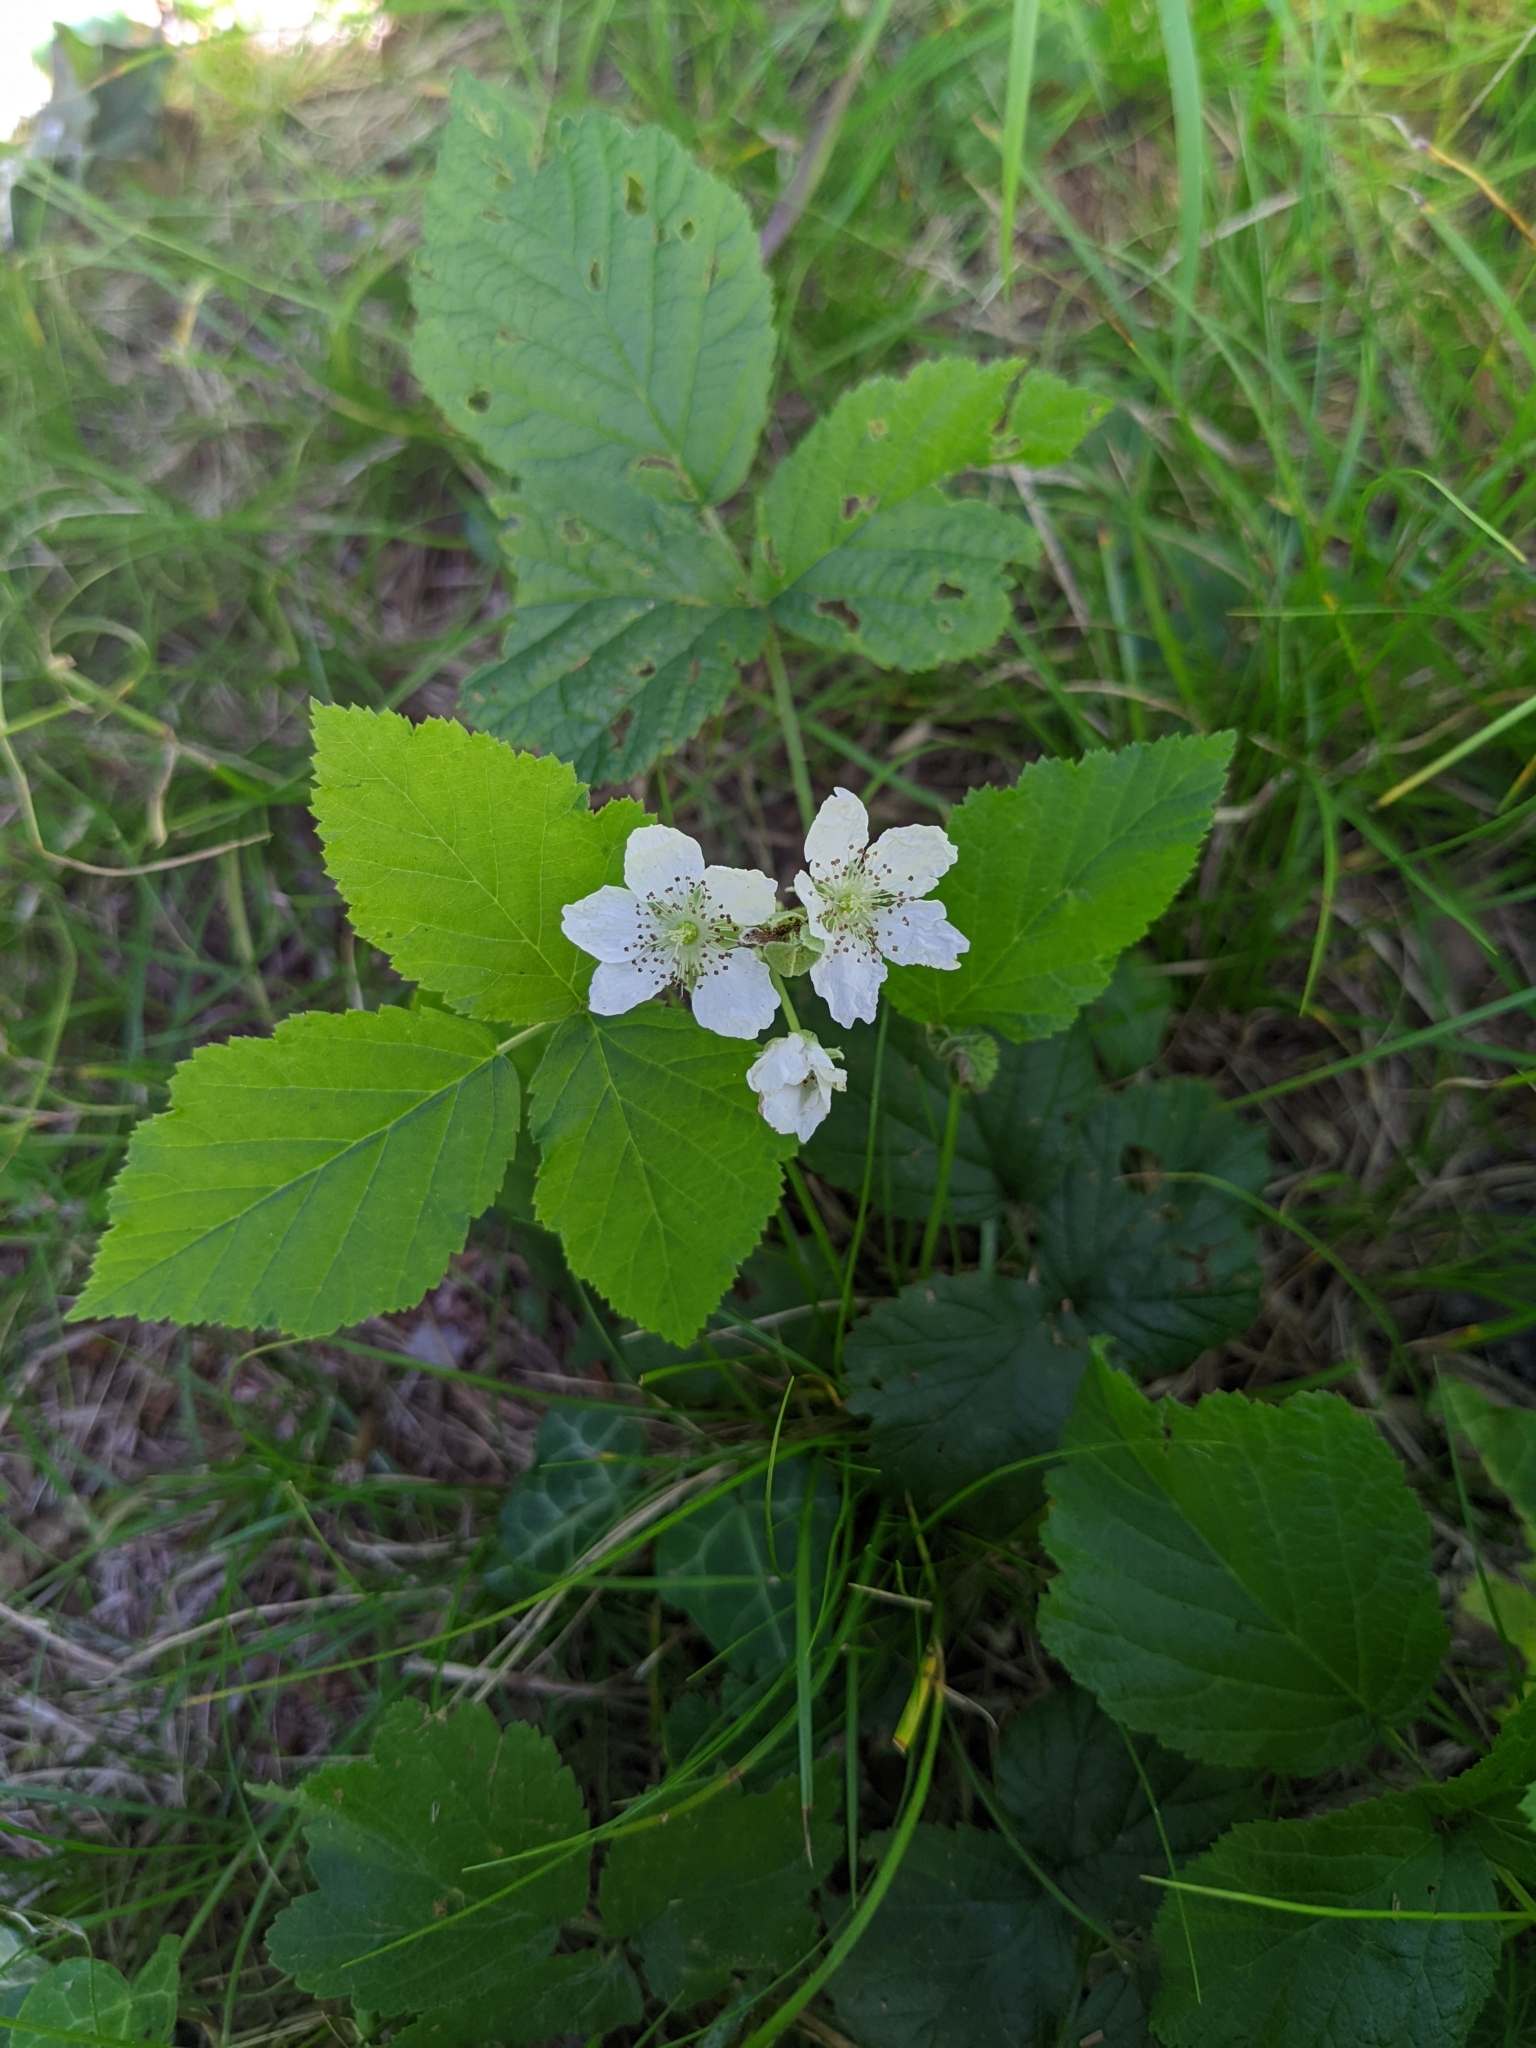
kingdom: Plantae
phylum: Tracheophyta
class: Magnoliopsida
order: Rosales
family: Rosaceae
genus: Rubus
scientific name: Rubus caesius
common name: Dewberry
